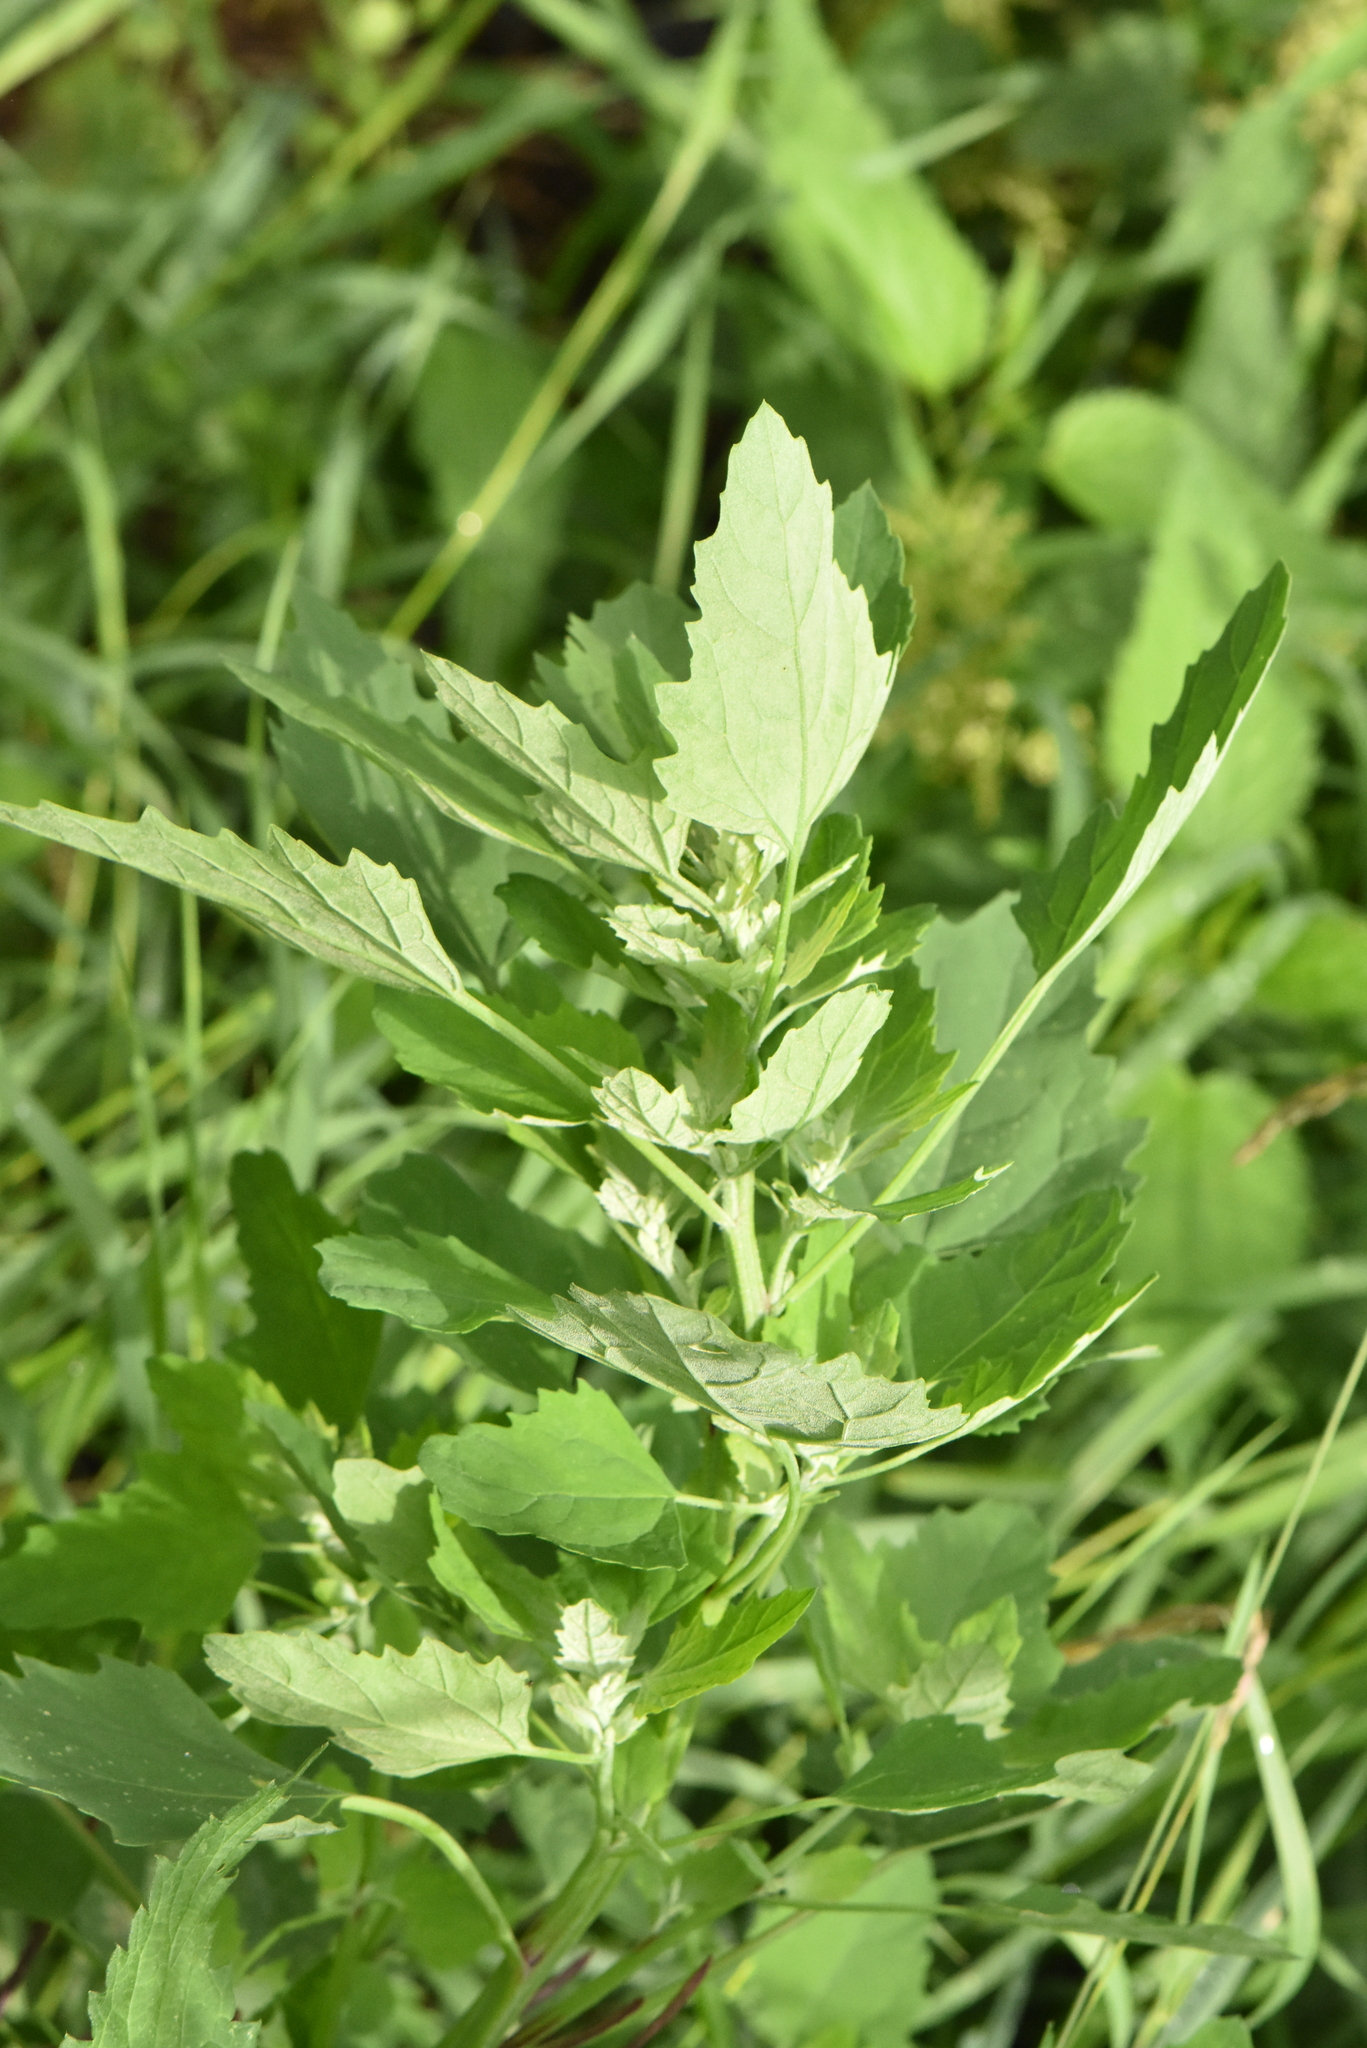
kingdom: Plantae
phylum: Tracheophyta
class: Magnoliopsida
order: Caryophyllales
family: Amaranthaceae
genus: Chenopodium
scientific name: Chenopodium album
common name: Fat-hen
